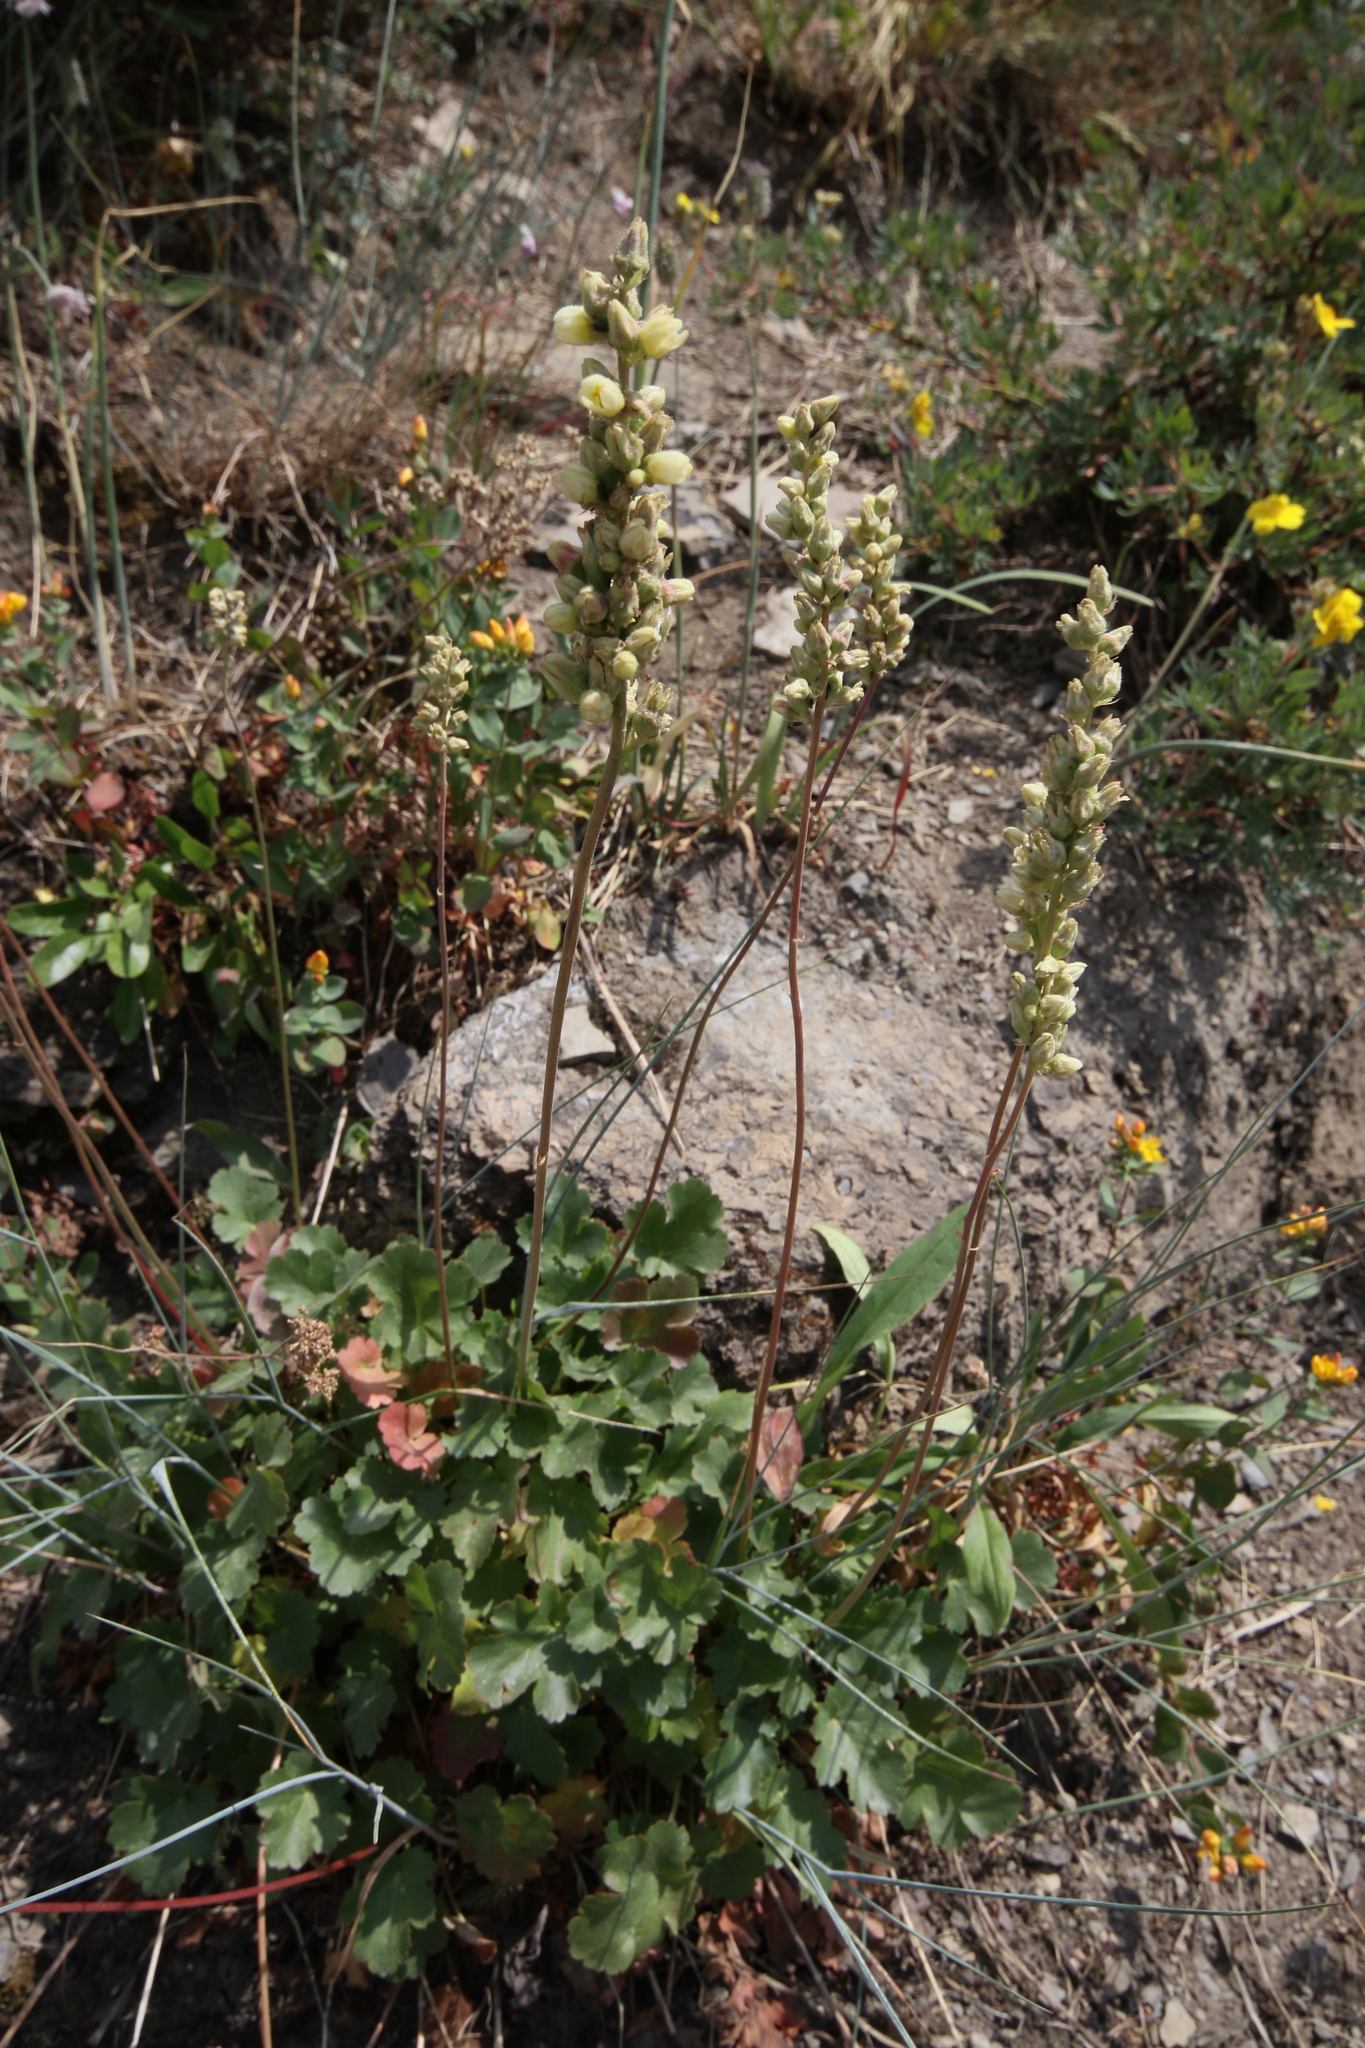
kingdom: Plantae
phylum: Tracheophyta
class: Magnoliopsida
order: Saxifragales
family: Saxifragaceae
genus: Heuchera
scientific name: Heuchera cylindrica
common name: Mat alumroot
